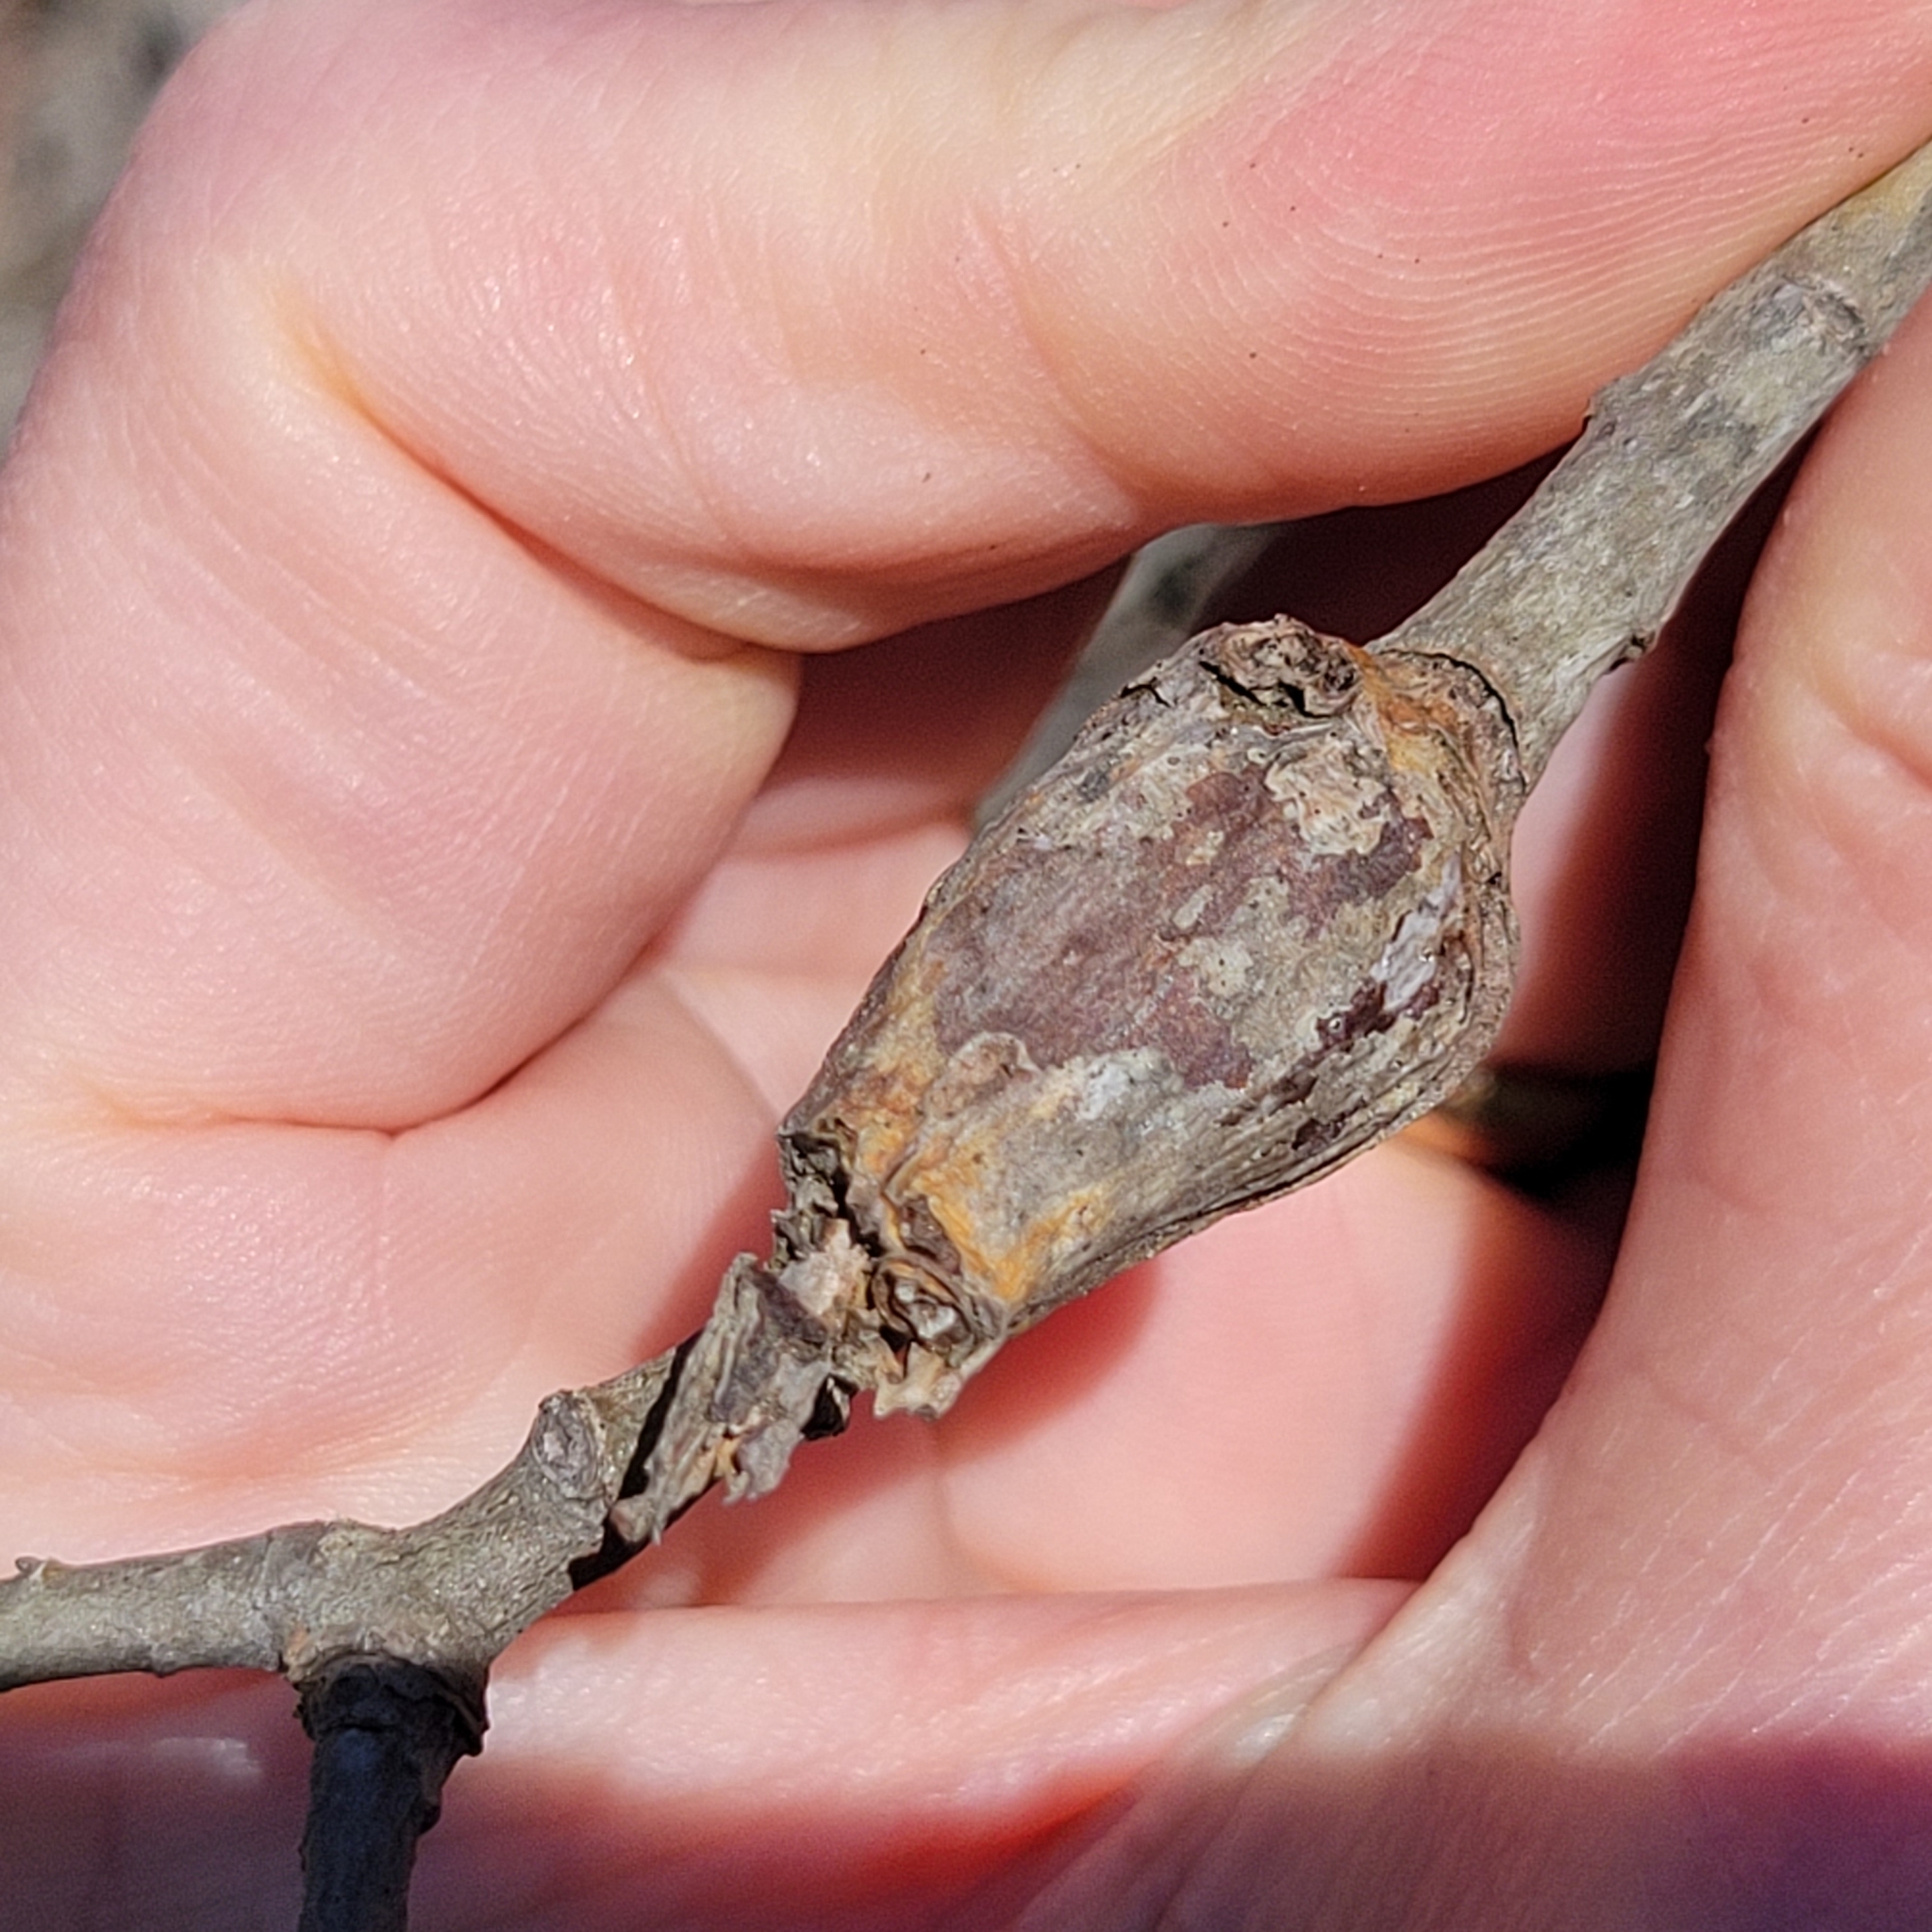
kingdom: Animalia
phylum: Arthropoda
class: Insecta
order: Diptera
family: Cecidomyiidae
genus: Thecodiplosis
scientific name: Thecodiplosis pinirigidae
